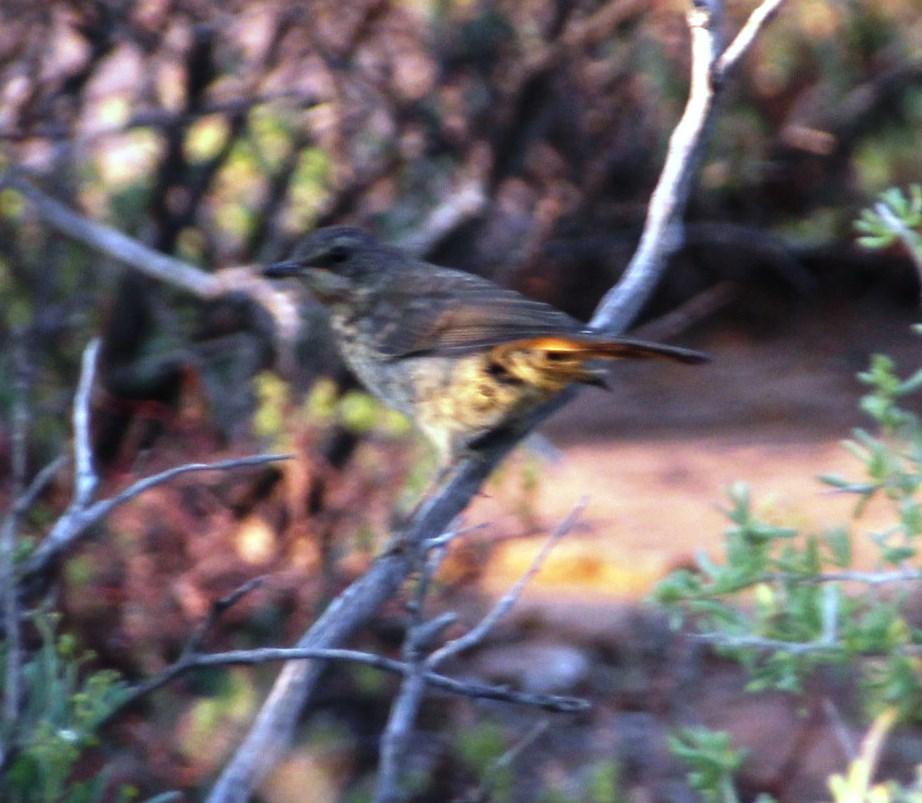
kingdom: Animalia
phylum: Chordata
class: Aves
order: Passeriformes
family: Muscicapidae
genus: Cossypha
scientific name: Cossypha caffra
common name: Cape robin-chat
